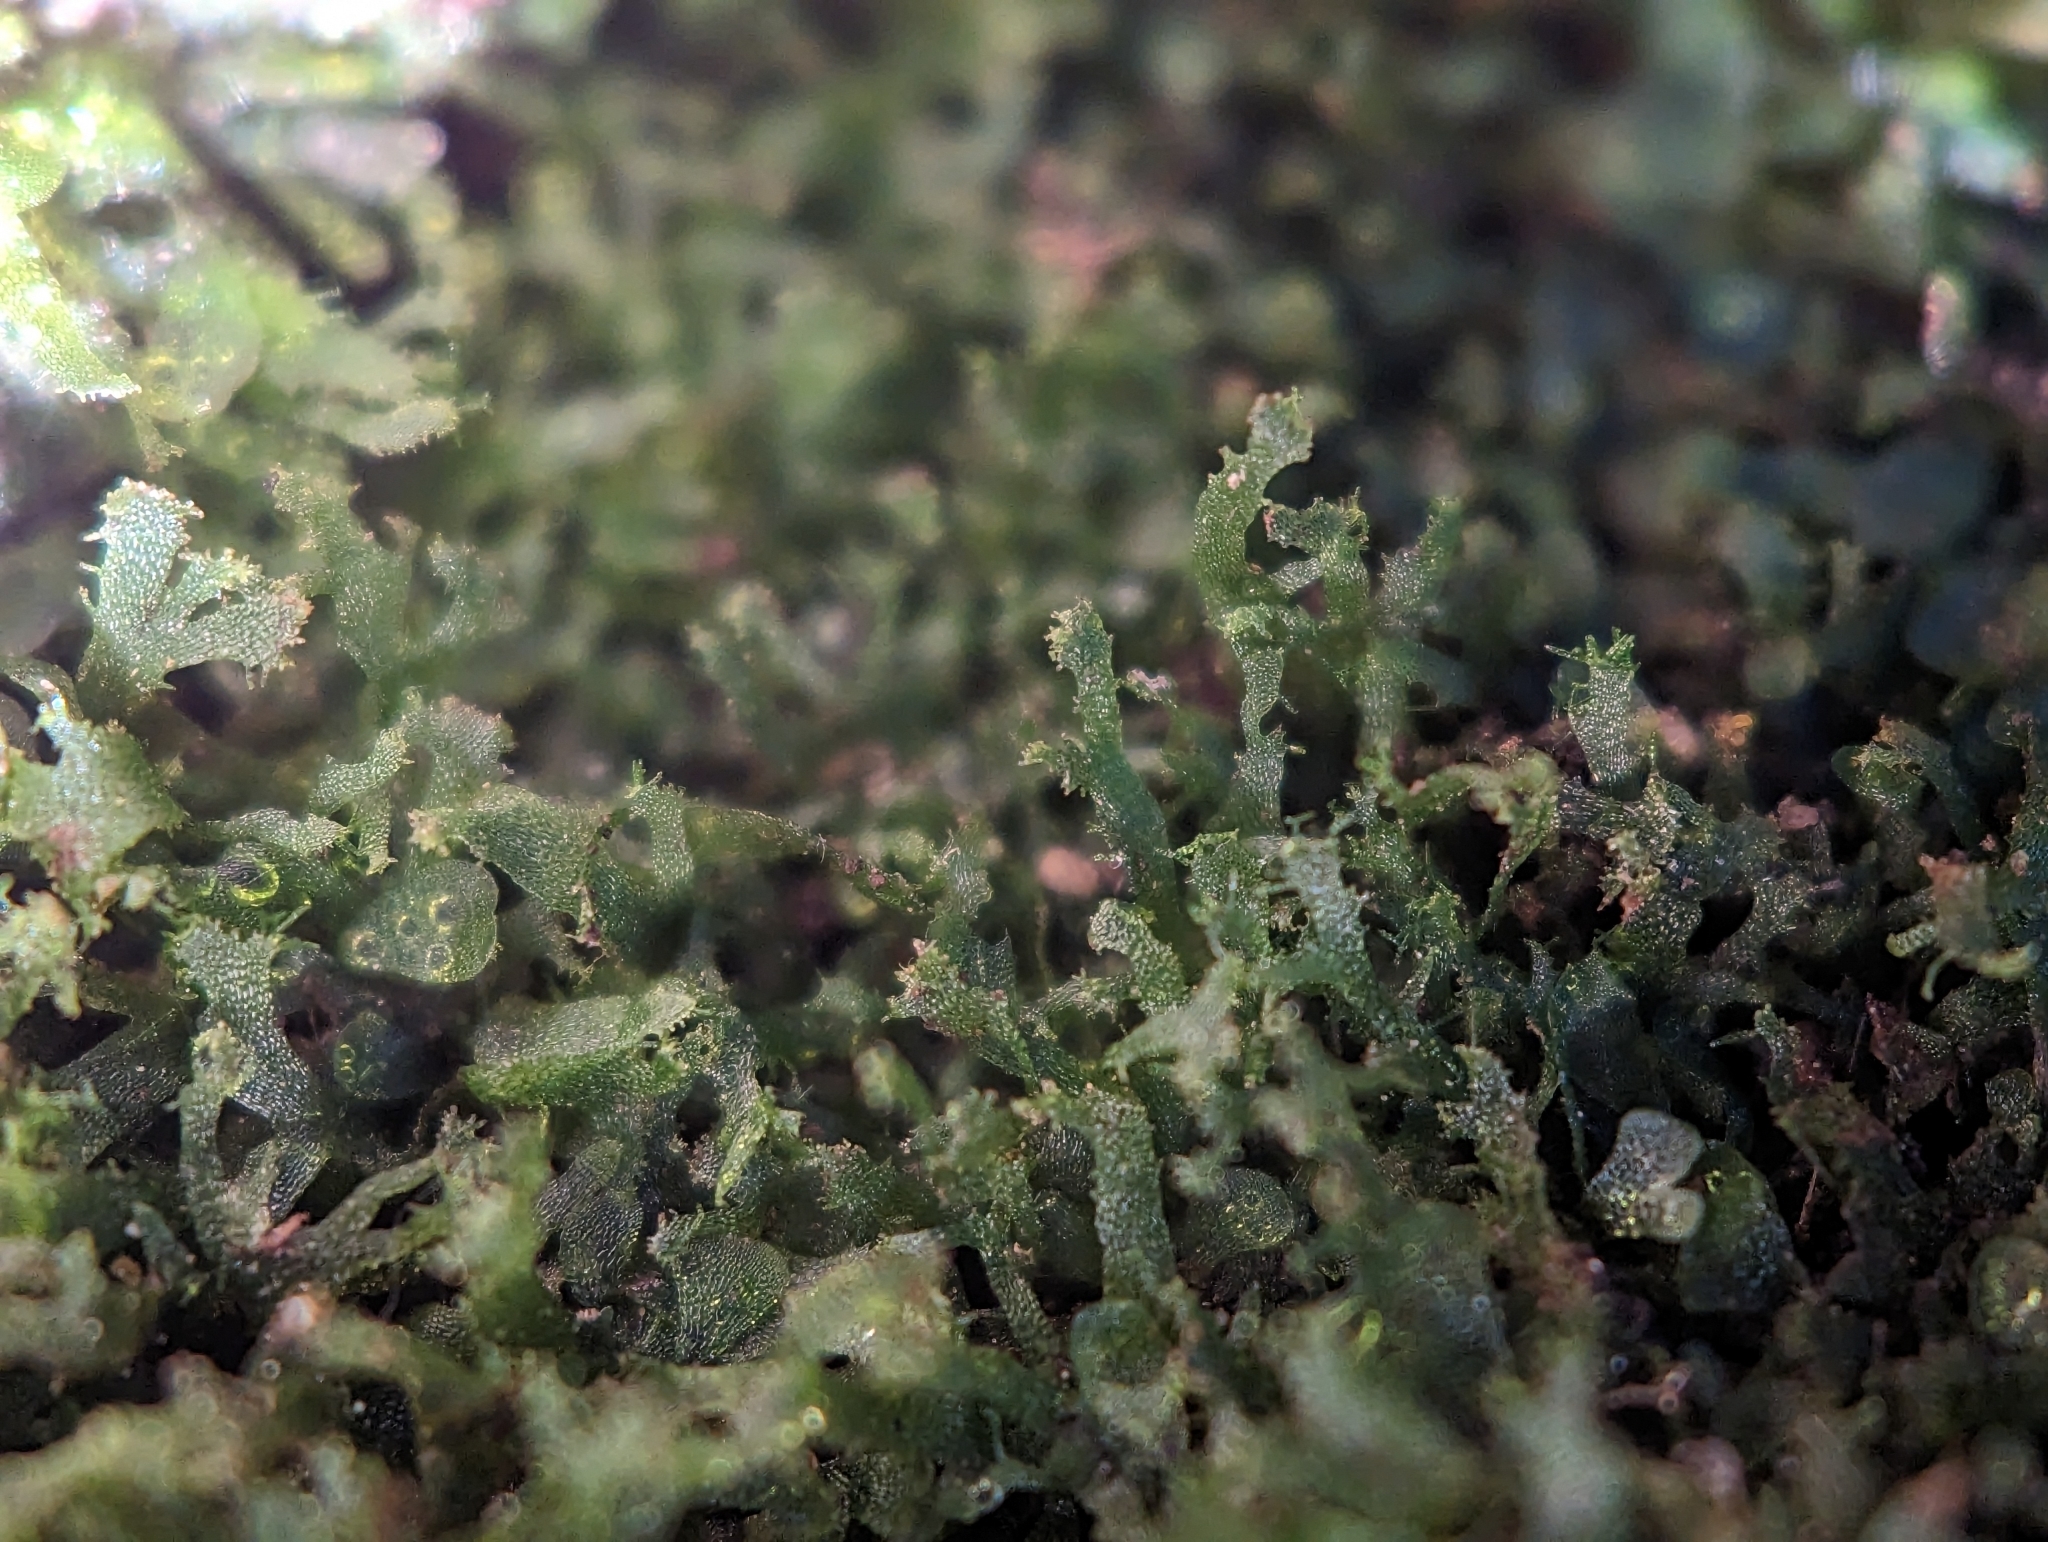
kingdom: Plantae
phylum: Tracheophyta
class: Polypodiopsida
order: Polypodiales
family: Pteridaceae
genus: Vittaria
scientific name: Vittaria appalachiana
